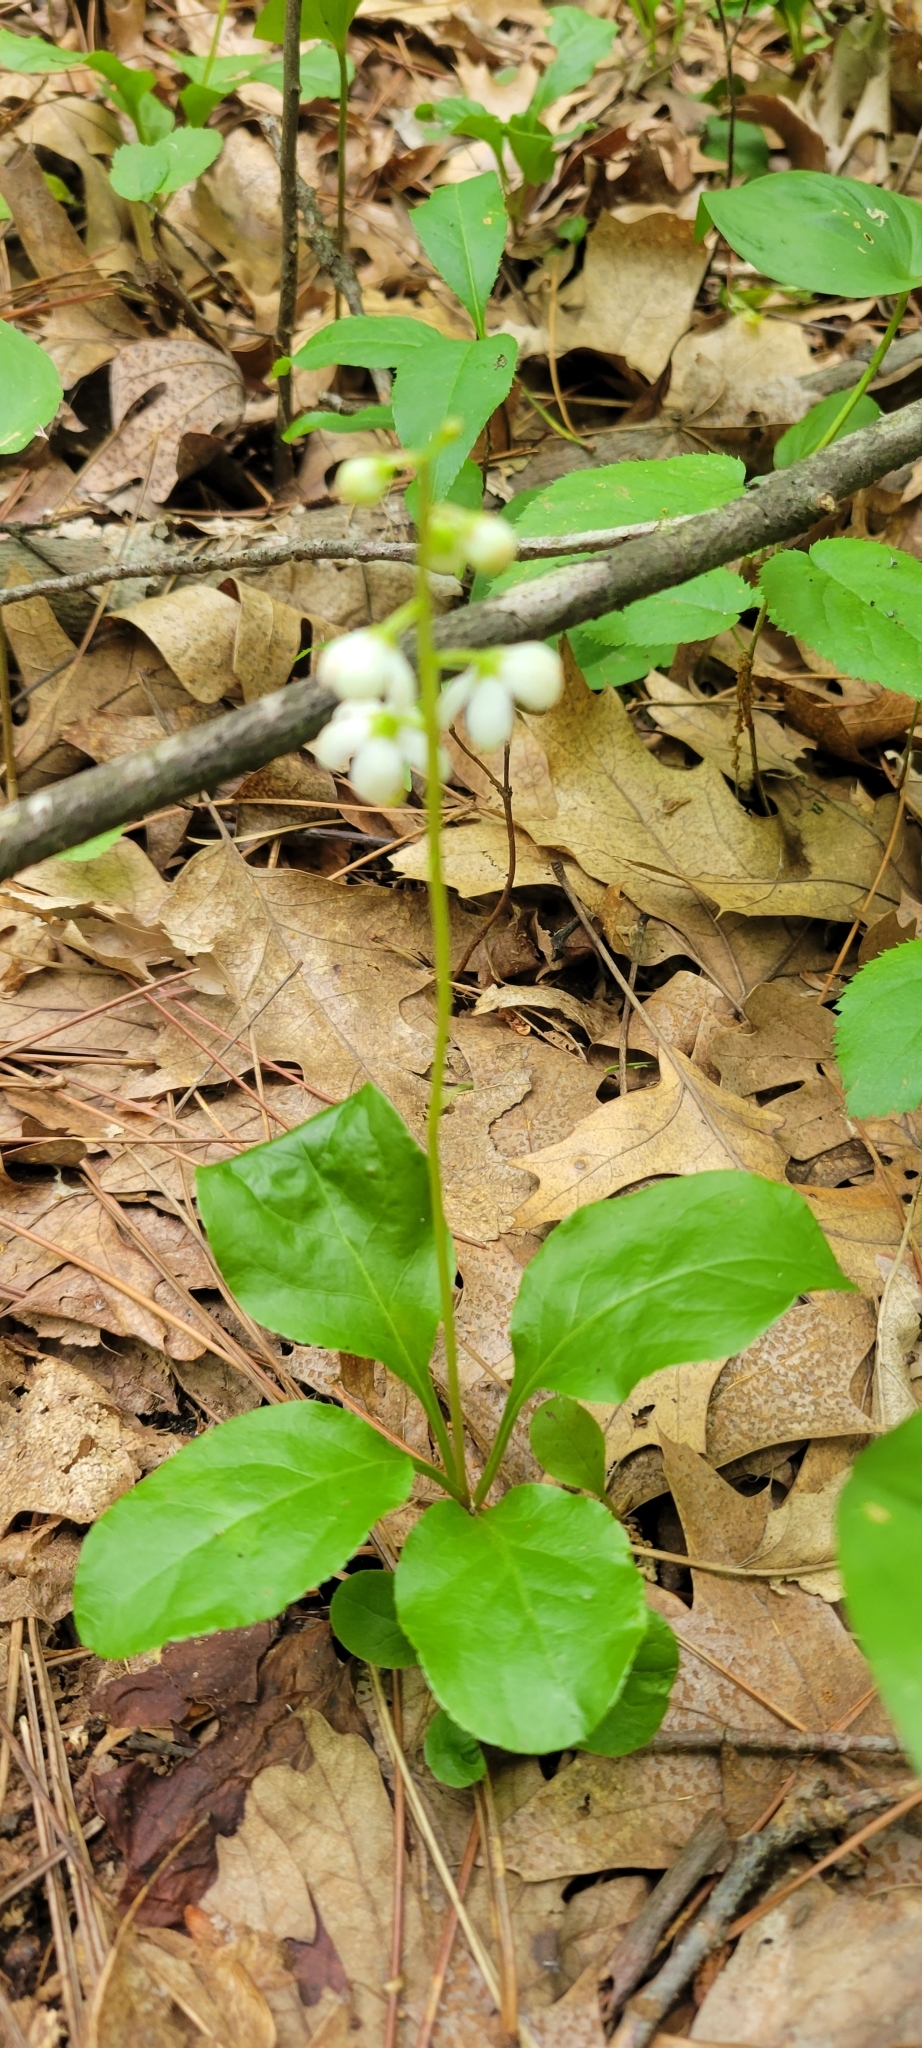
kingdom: Plantae
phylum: Tracheophyta
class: Magnoliopsida
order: Ericales
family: Ericaceae
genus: Pyrola
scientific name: Pyrola elliptica
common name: Shinleaf
